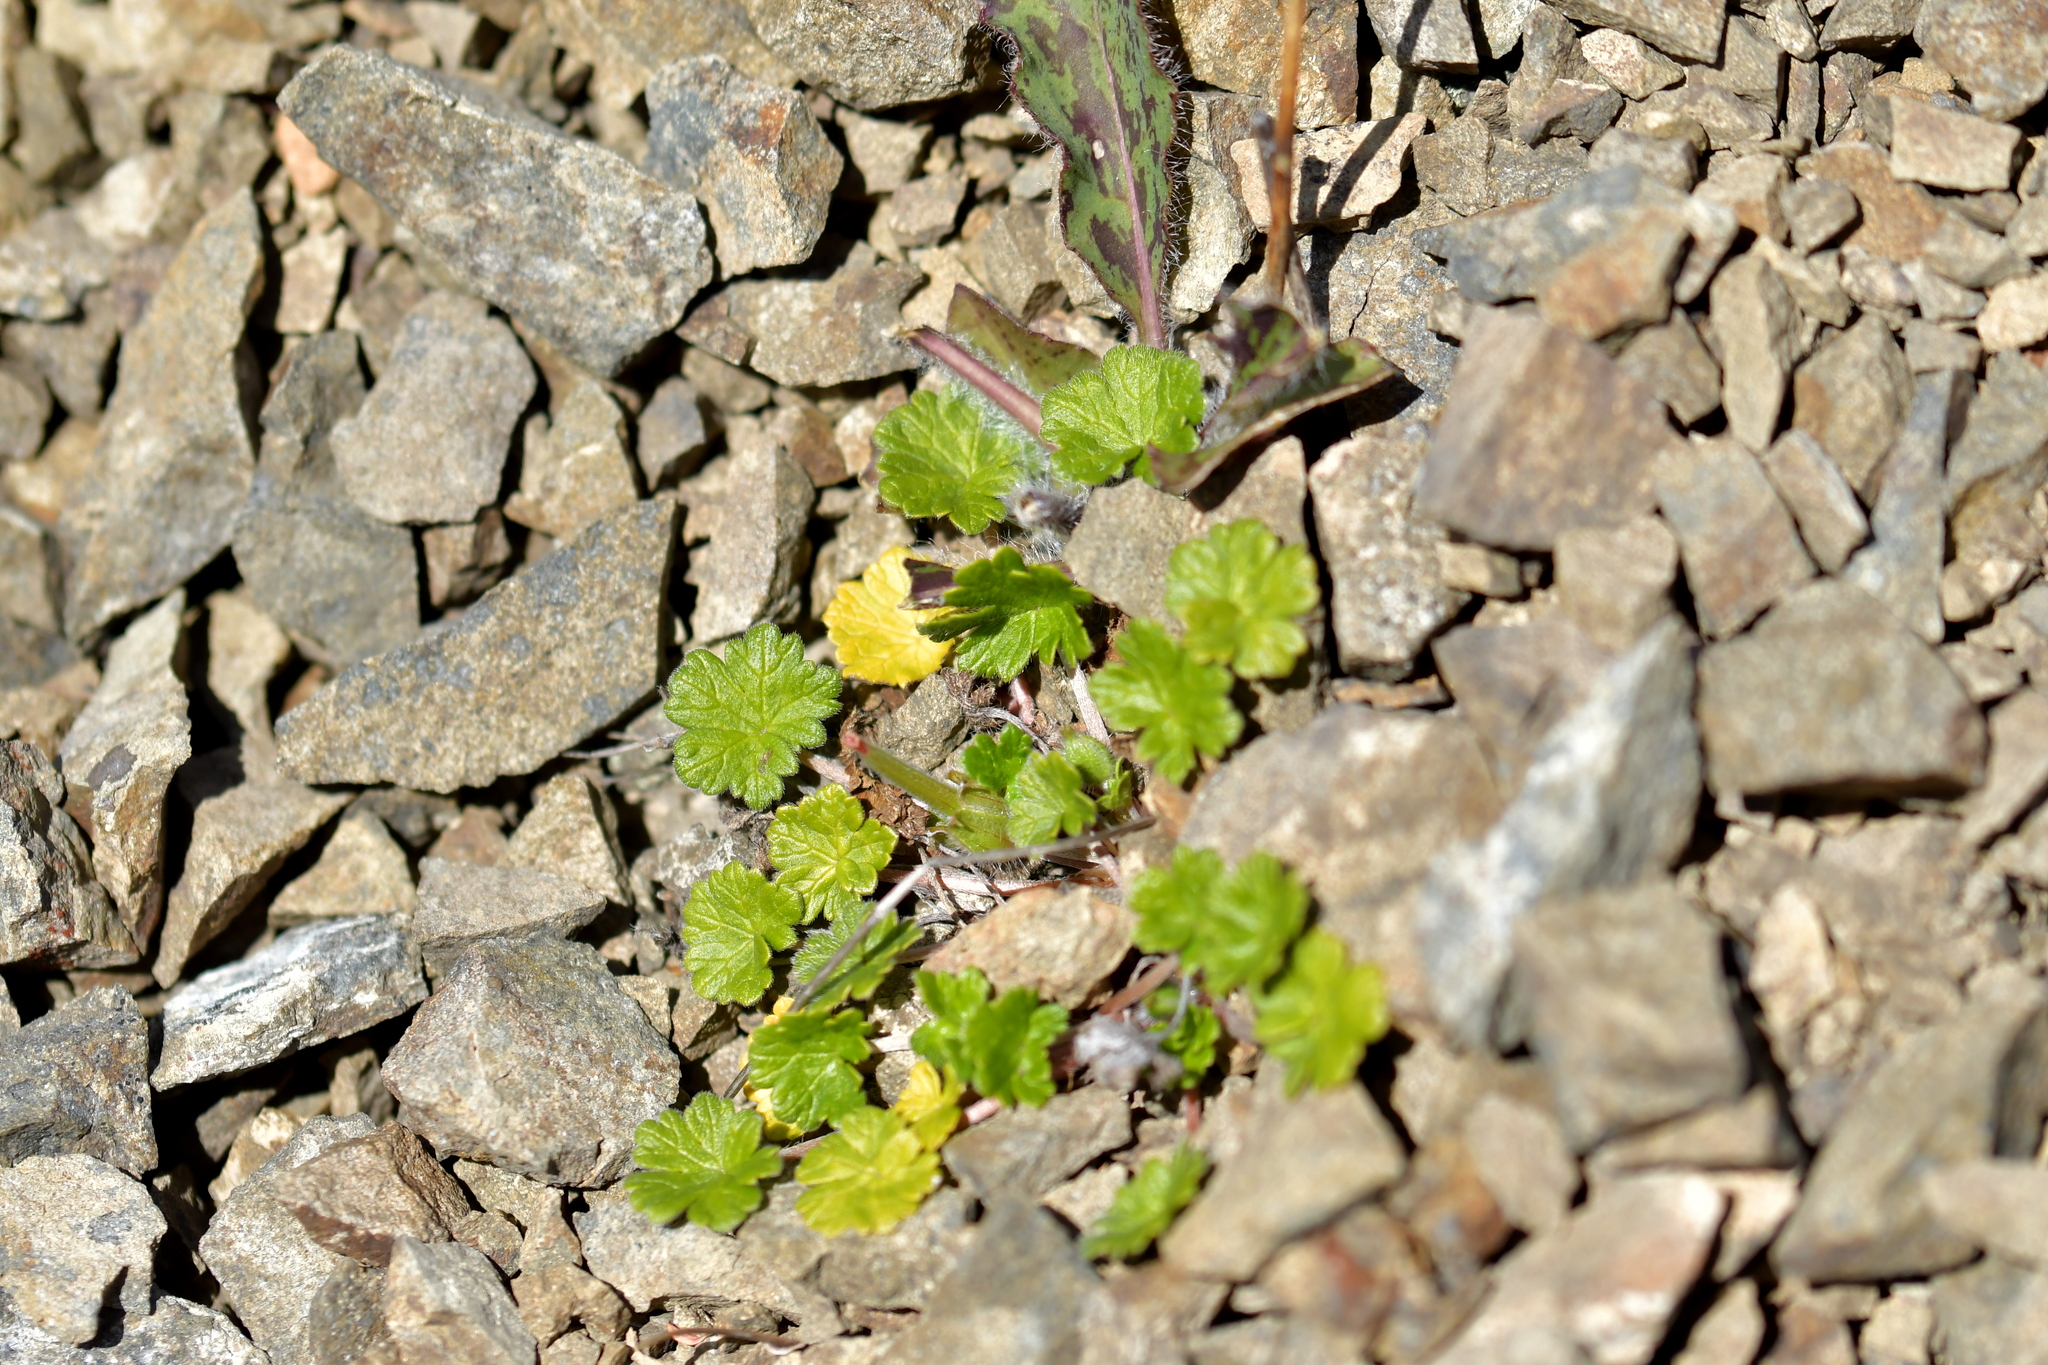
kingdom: Plantae
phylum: Tracheophyta
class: Magnoliopsida
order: Geraniales
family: Geraniaceae
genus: Geranium
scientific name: Geranium brevicaule
